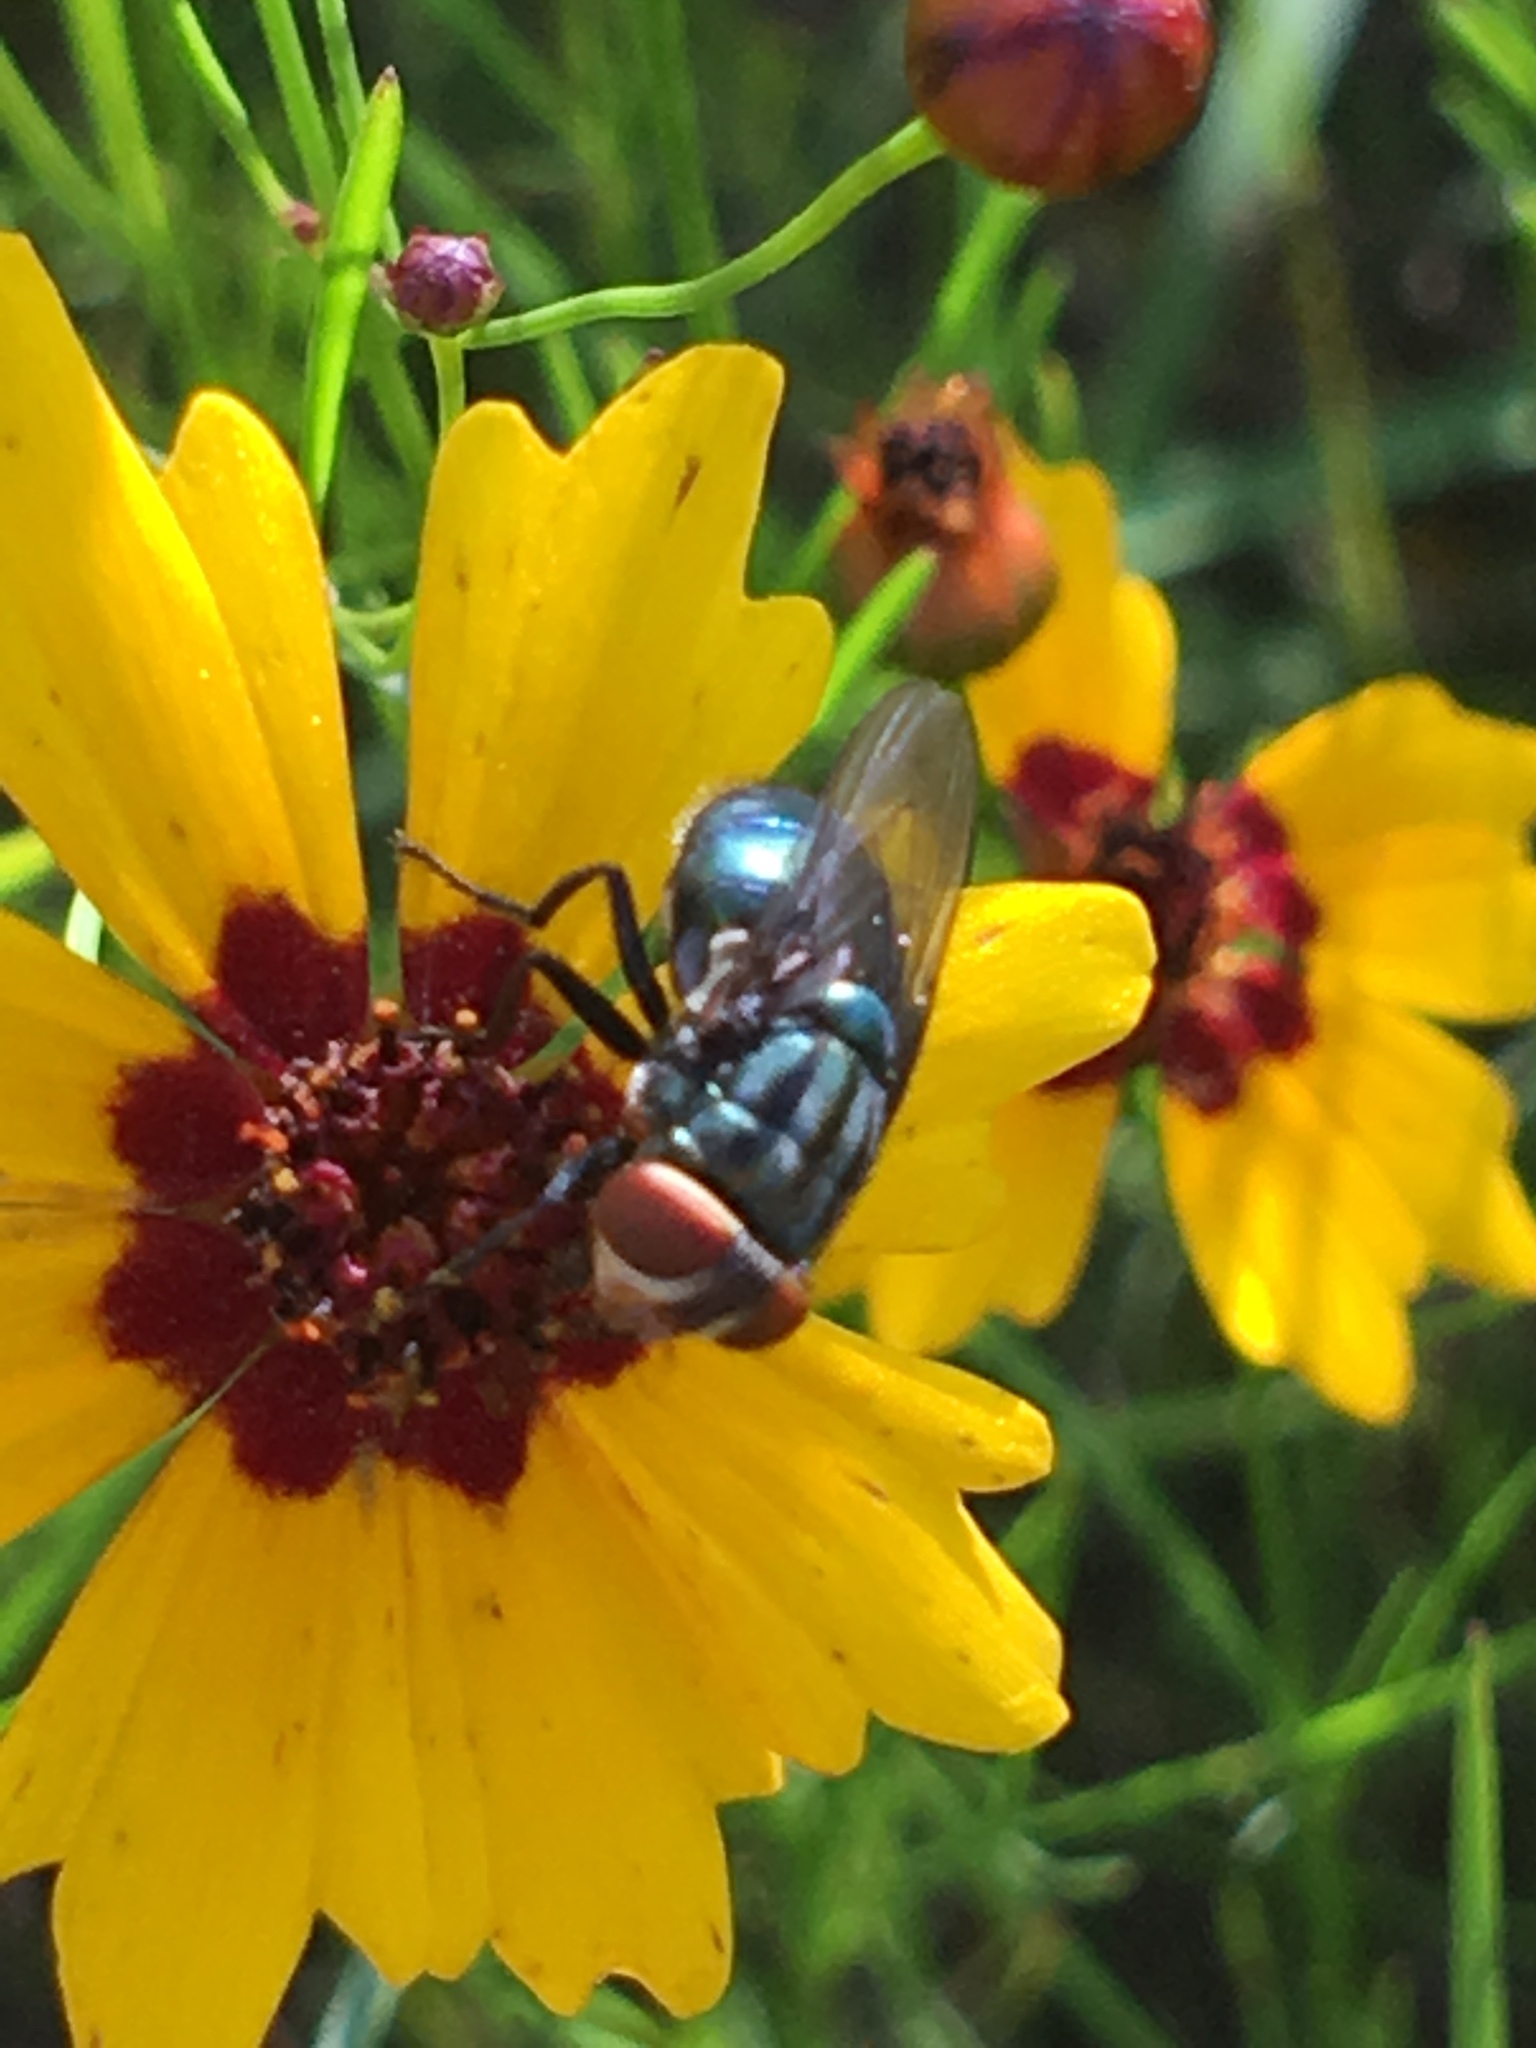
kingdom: Animalia
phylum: Arthropoda
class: Insecta
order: Diptera
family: Calliphoridae
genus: Cochliomyia
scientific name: Cochliomyia macellaria
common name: Secondary screwworm
